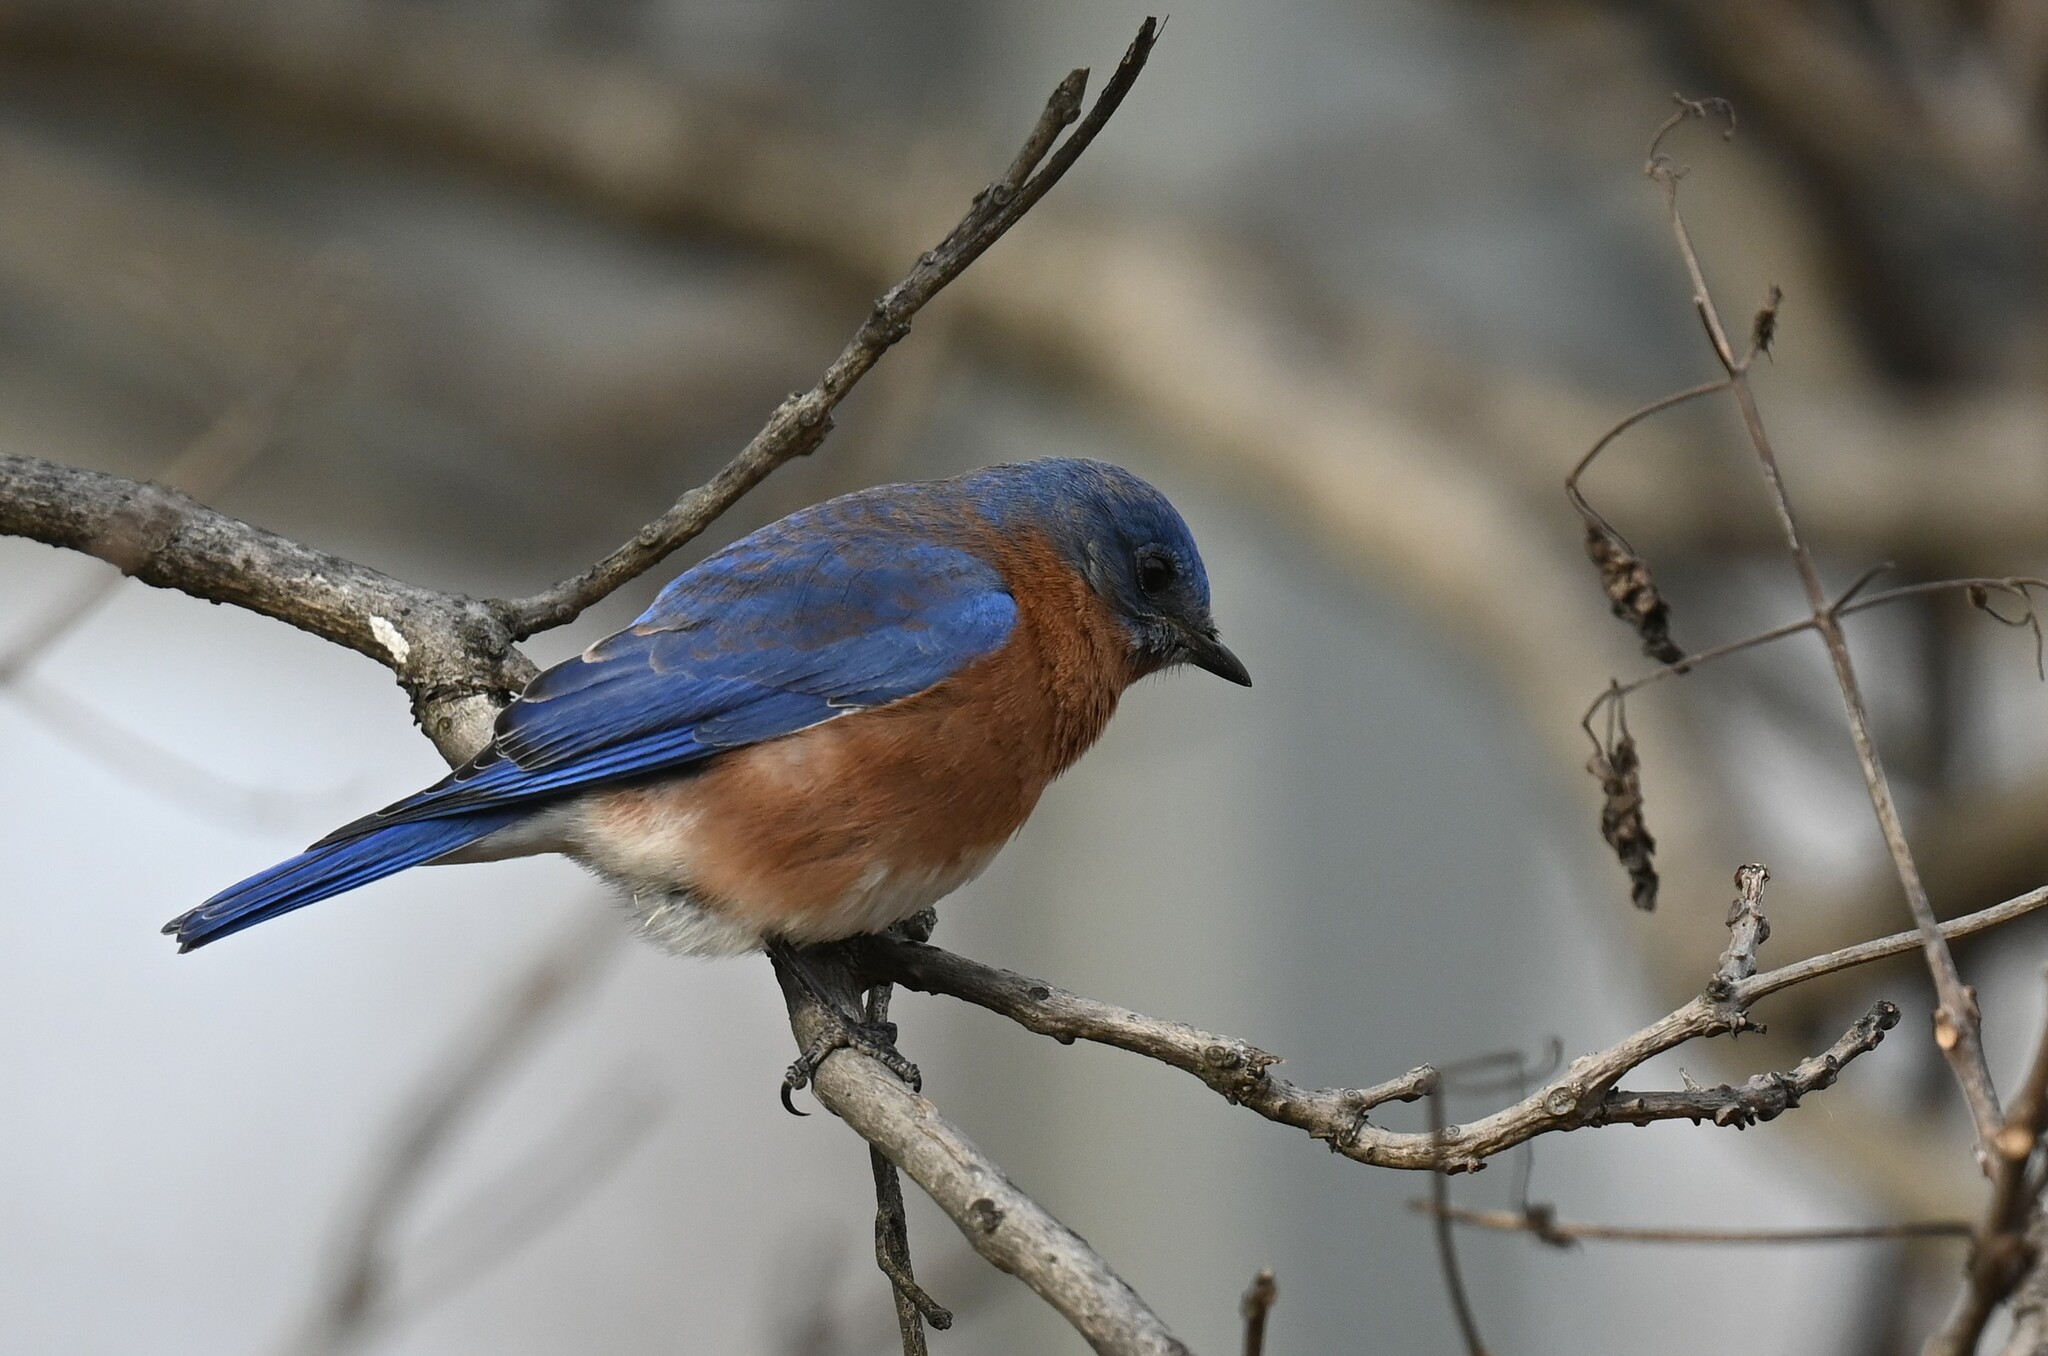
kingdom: Animalia
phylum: Chordata
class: Aves
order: Passeriformes
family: Turdidae
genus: Sialia
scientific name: Sialia sialis
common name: Eastern bluebird
